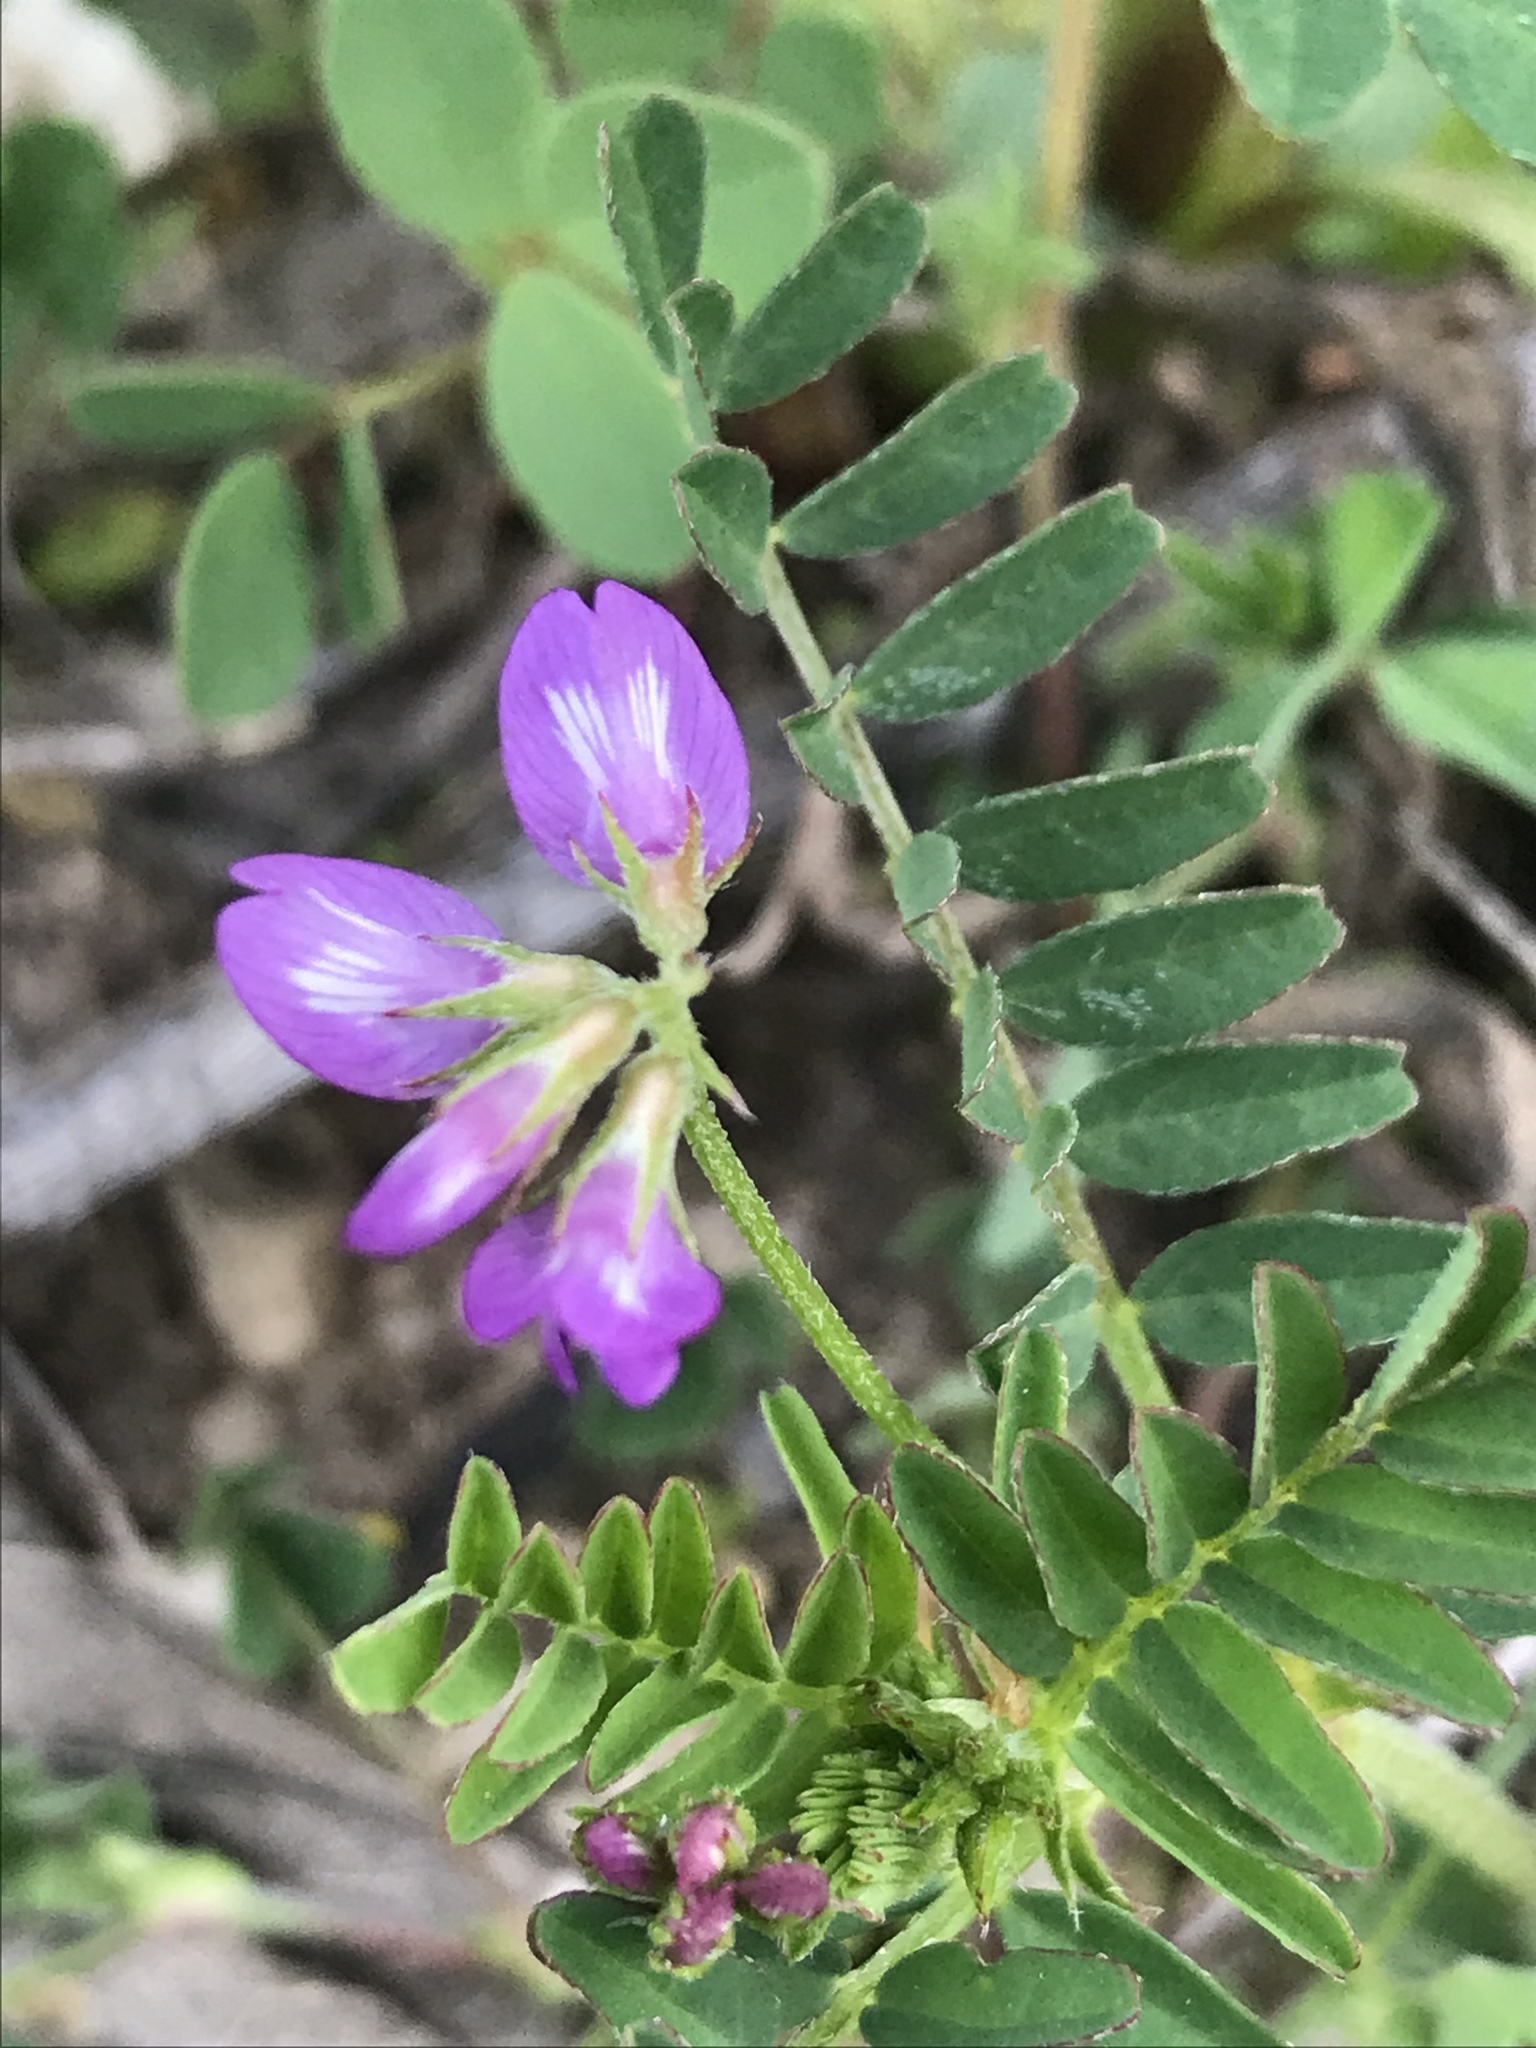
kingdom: Plantae
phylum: Tracheophyta
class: Magnoliopsida
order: Fabales
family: Fabaceae
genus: Astragalus
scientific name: Astragalus nuttallianus
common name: Smallflowered milkvetch
